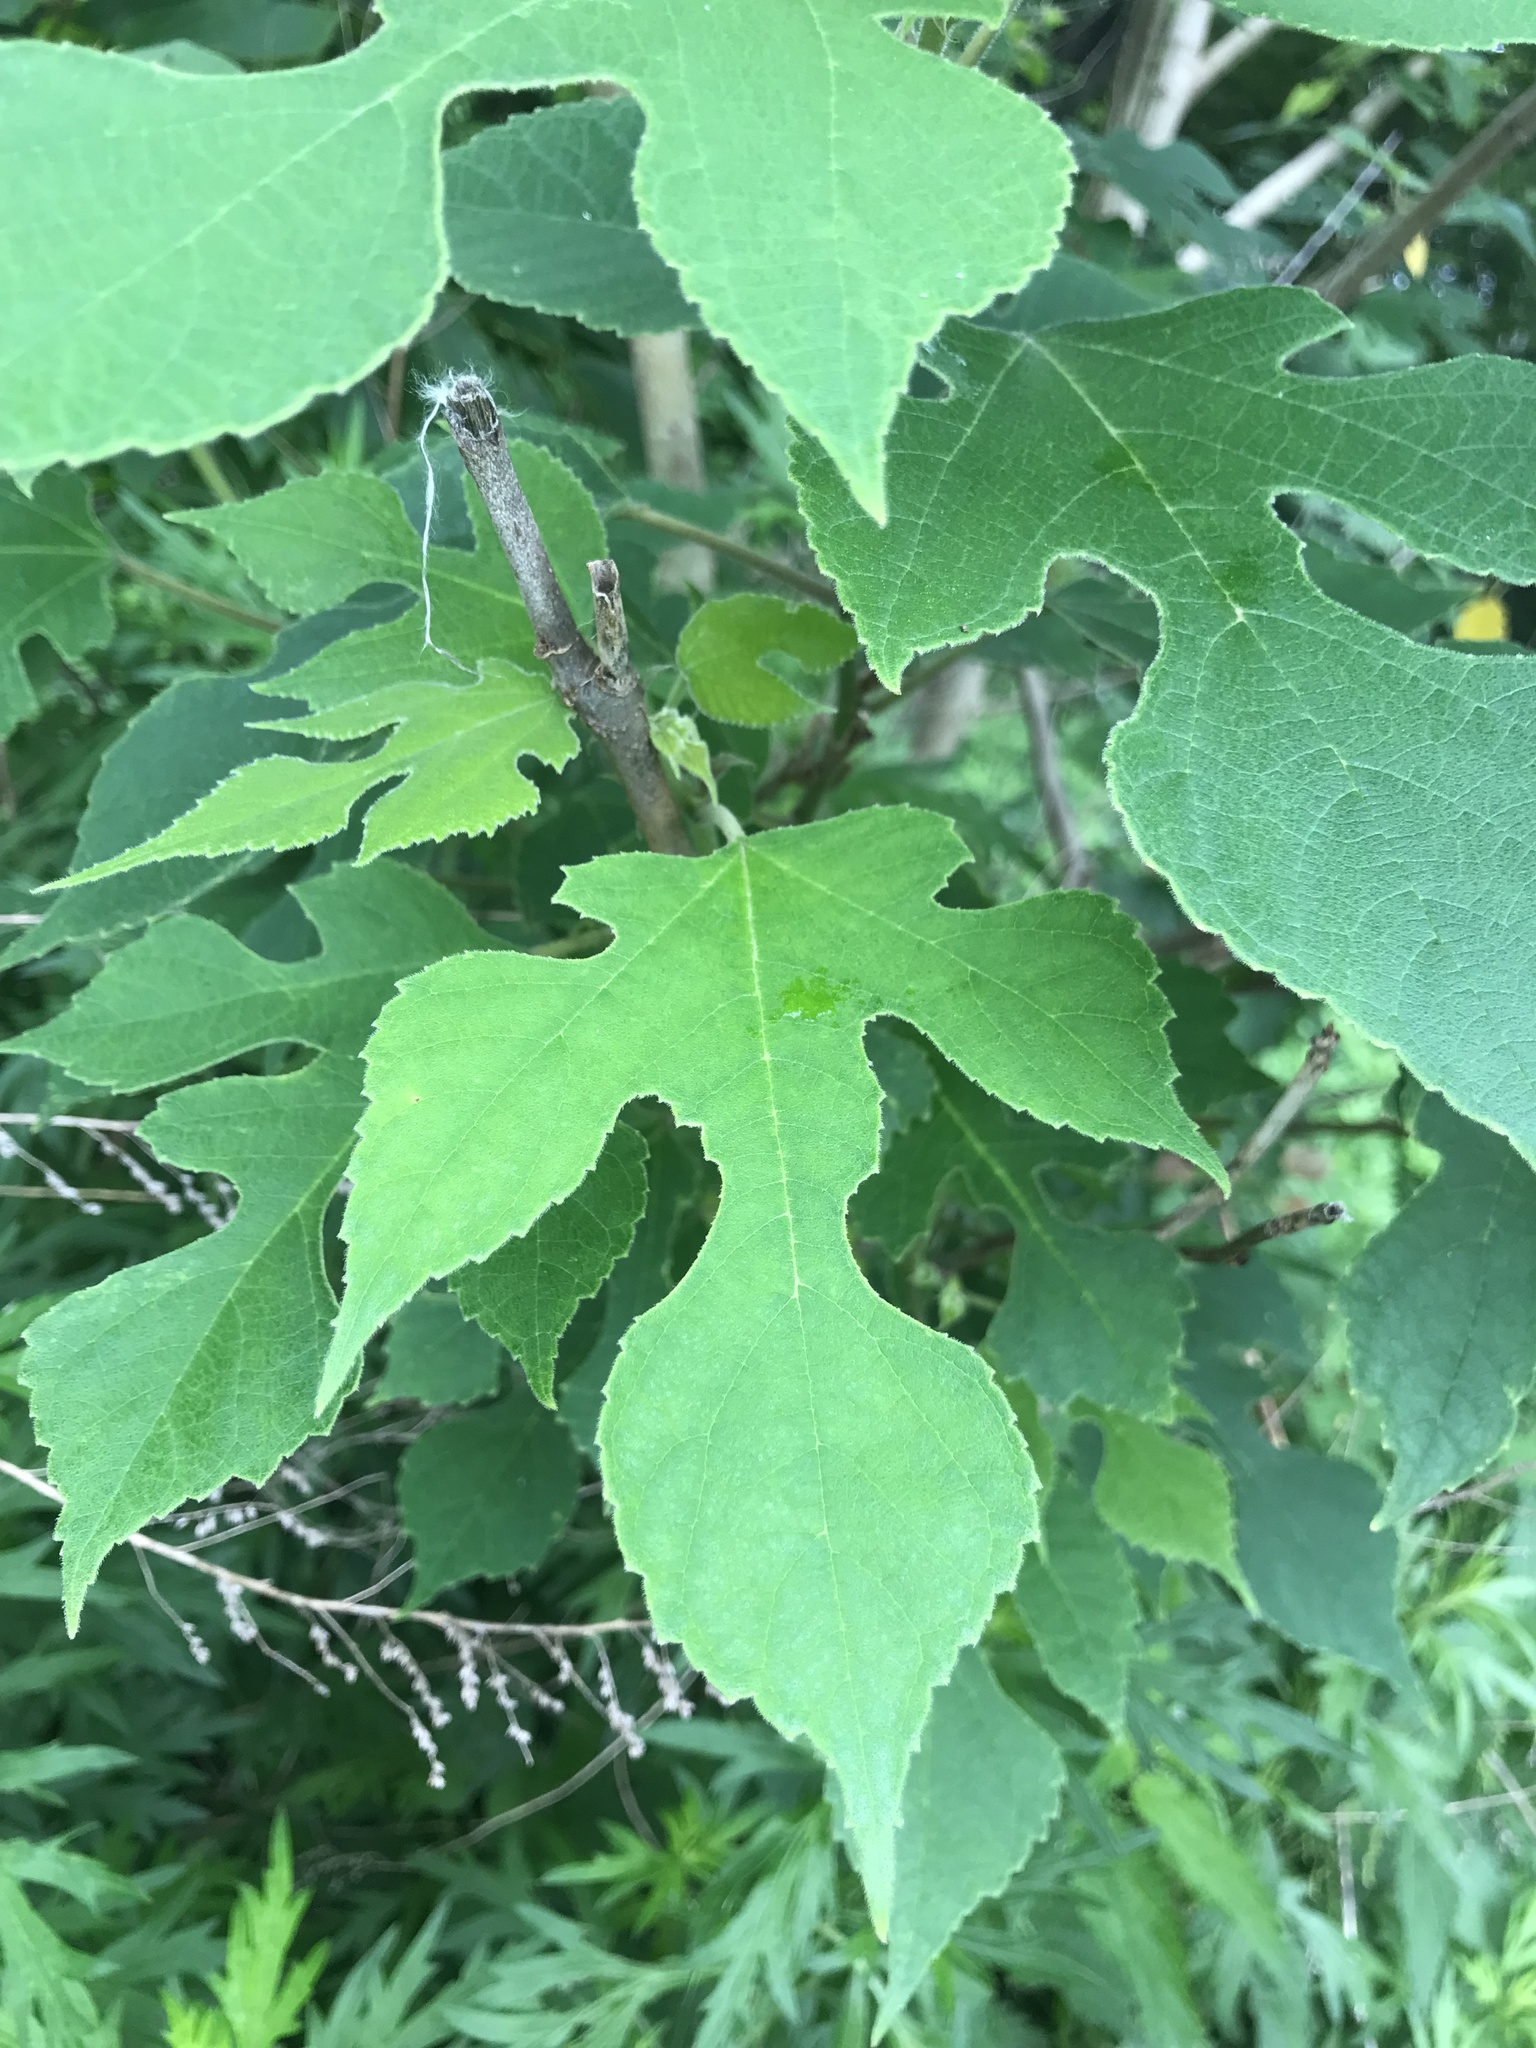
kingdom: Plantae
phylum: Tracheophyta
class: Magnoliopsida
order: Rosales
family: Moraceae
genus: Broussonetia
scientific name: Broussonetia papyrifera
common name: Paper mulberry
